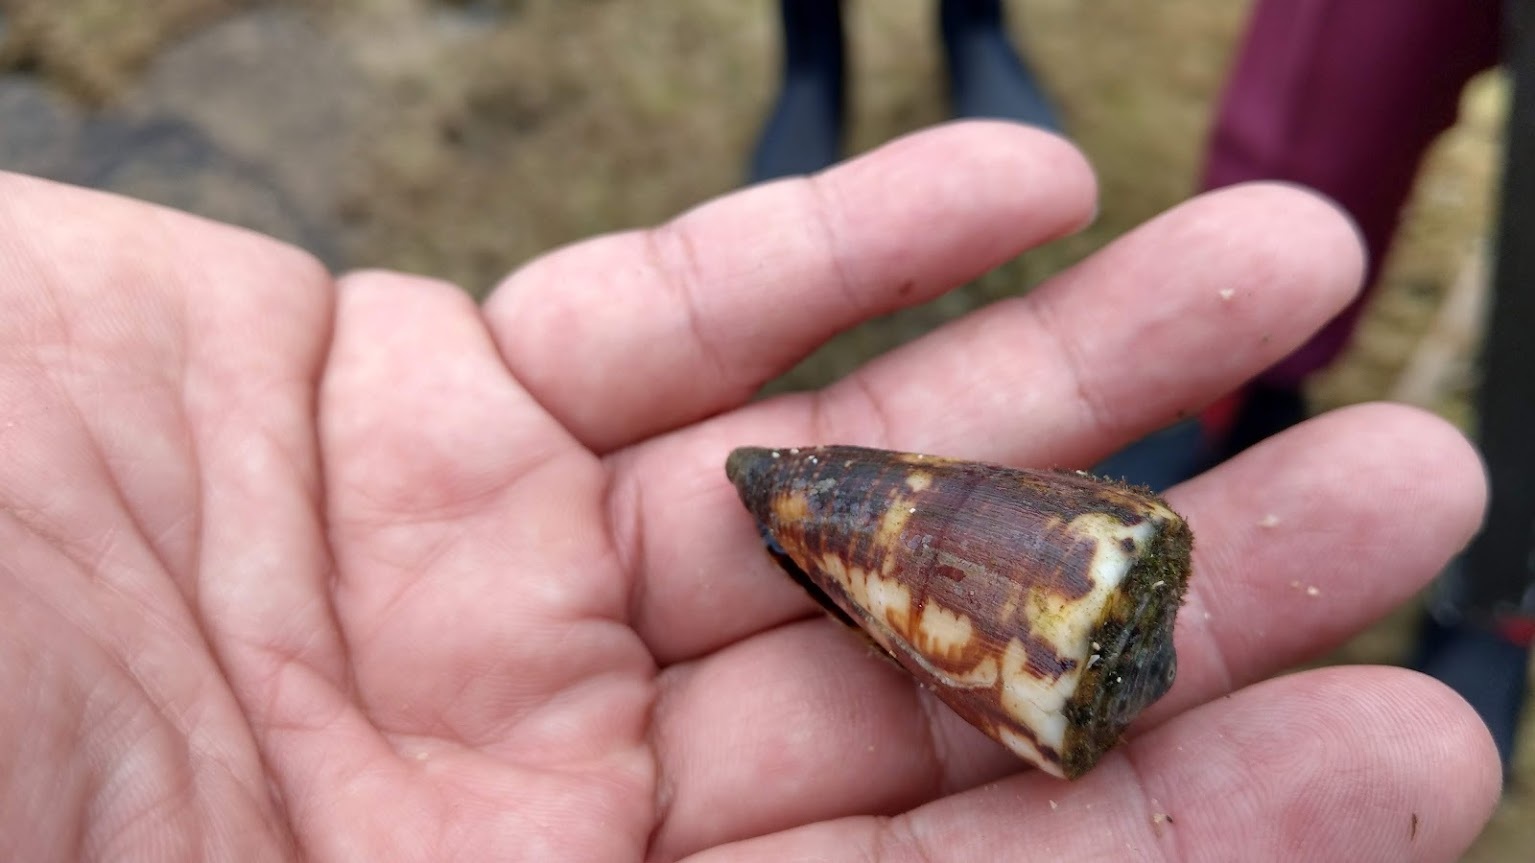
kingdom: Animalia
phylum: Mollusca
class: Gastropoda
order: Neogastropoda
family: Conidae
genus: Conus
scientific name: Conus vitulinus
